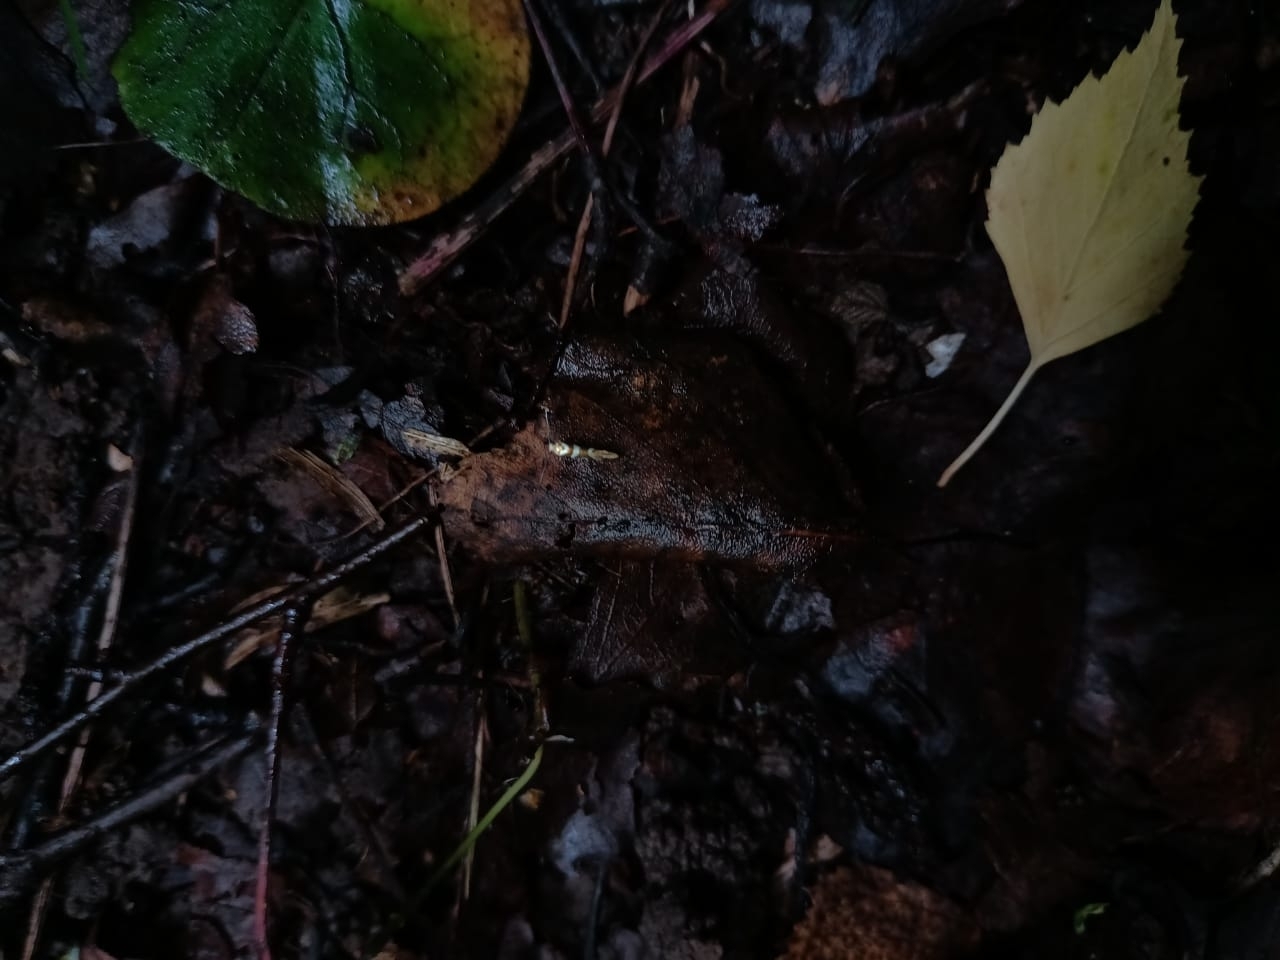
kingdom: Animalia
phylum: Arthropoda
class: Insecta
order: Lepidoptera
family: Argyresthiidae
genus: Argyresthia
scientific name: Argyresthia goedartella
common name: Golden argent
